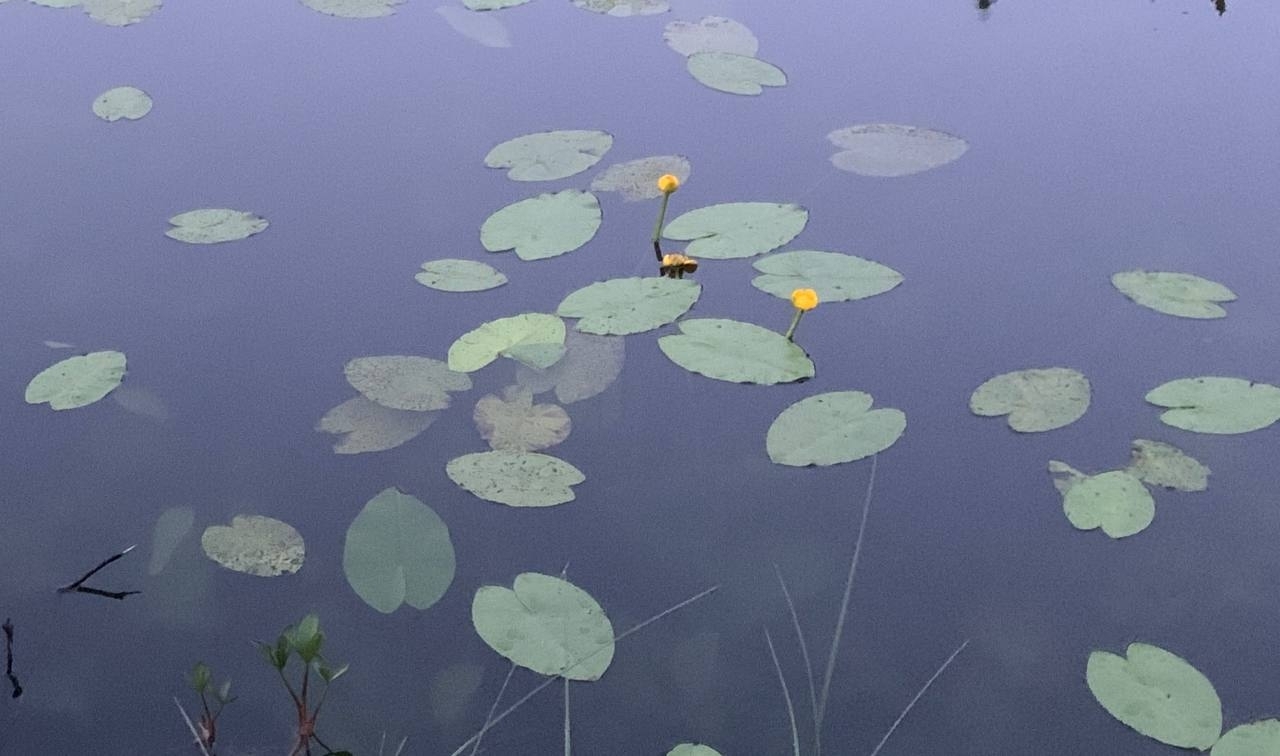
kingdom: Plantae
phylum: Tracheophyta
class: Magnoliopsida
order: Nymphaeales
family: Nymphaeaceae
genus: Nuphar
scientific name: Nuphar lutea
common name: Yellow water-lily
